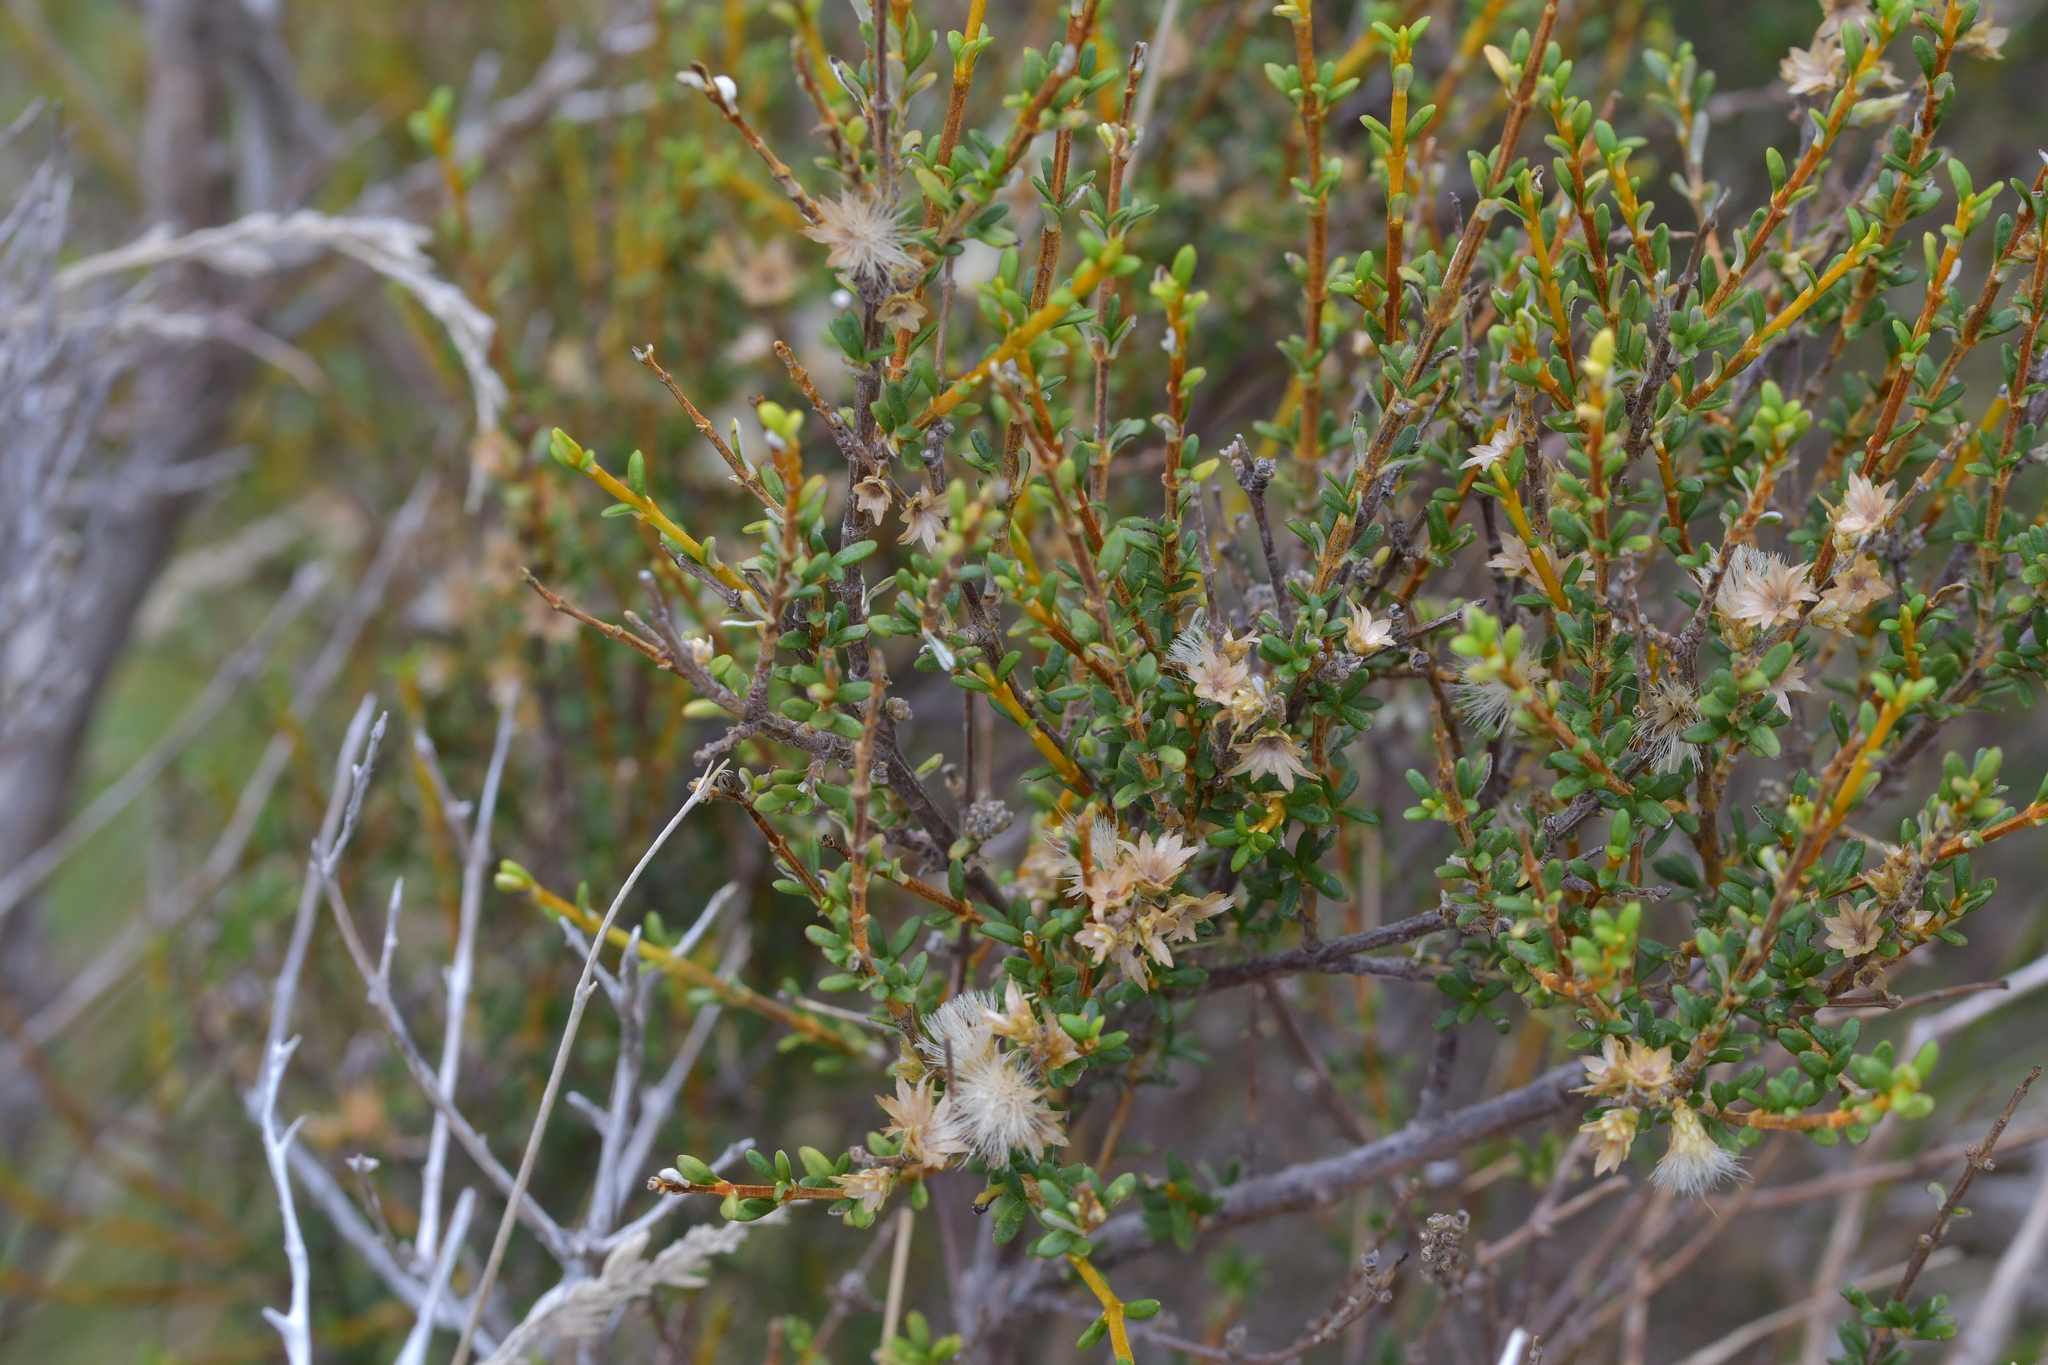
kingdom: Plantae
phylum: Tracheophyta
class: Magnoliopsida
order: Asterales
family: Asteraceae
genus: Olearia
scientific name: Olearia solandri
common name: Coastal daisybush
